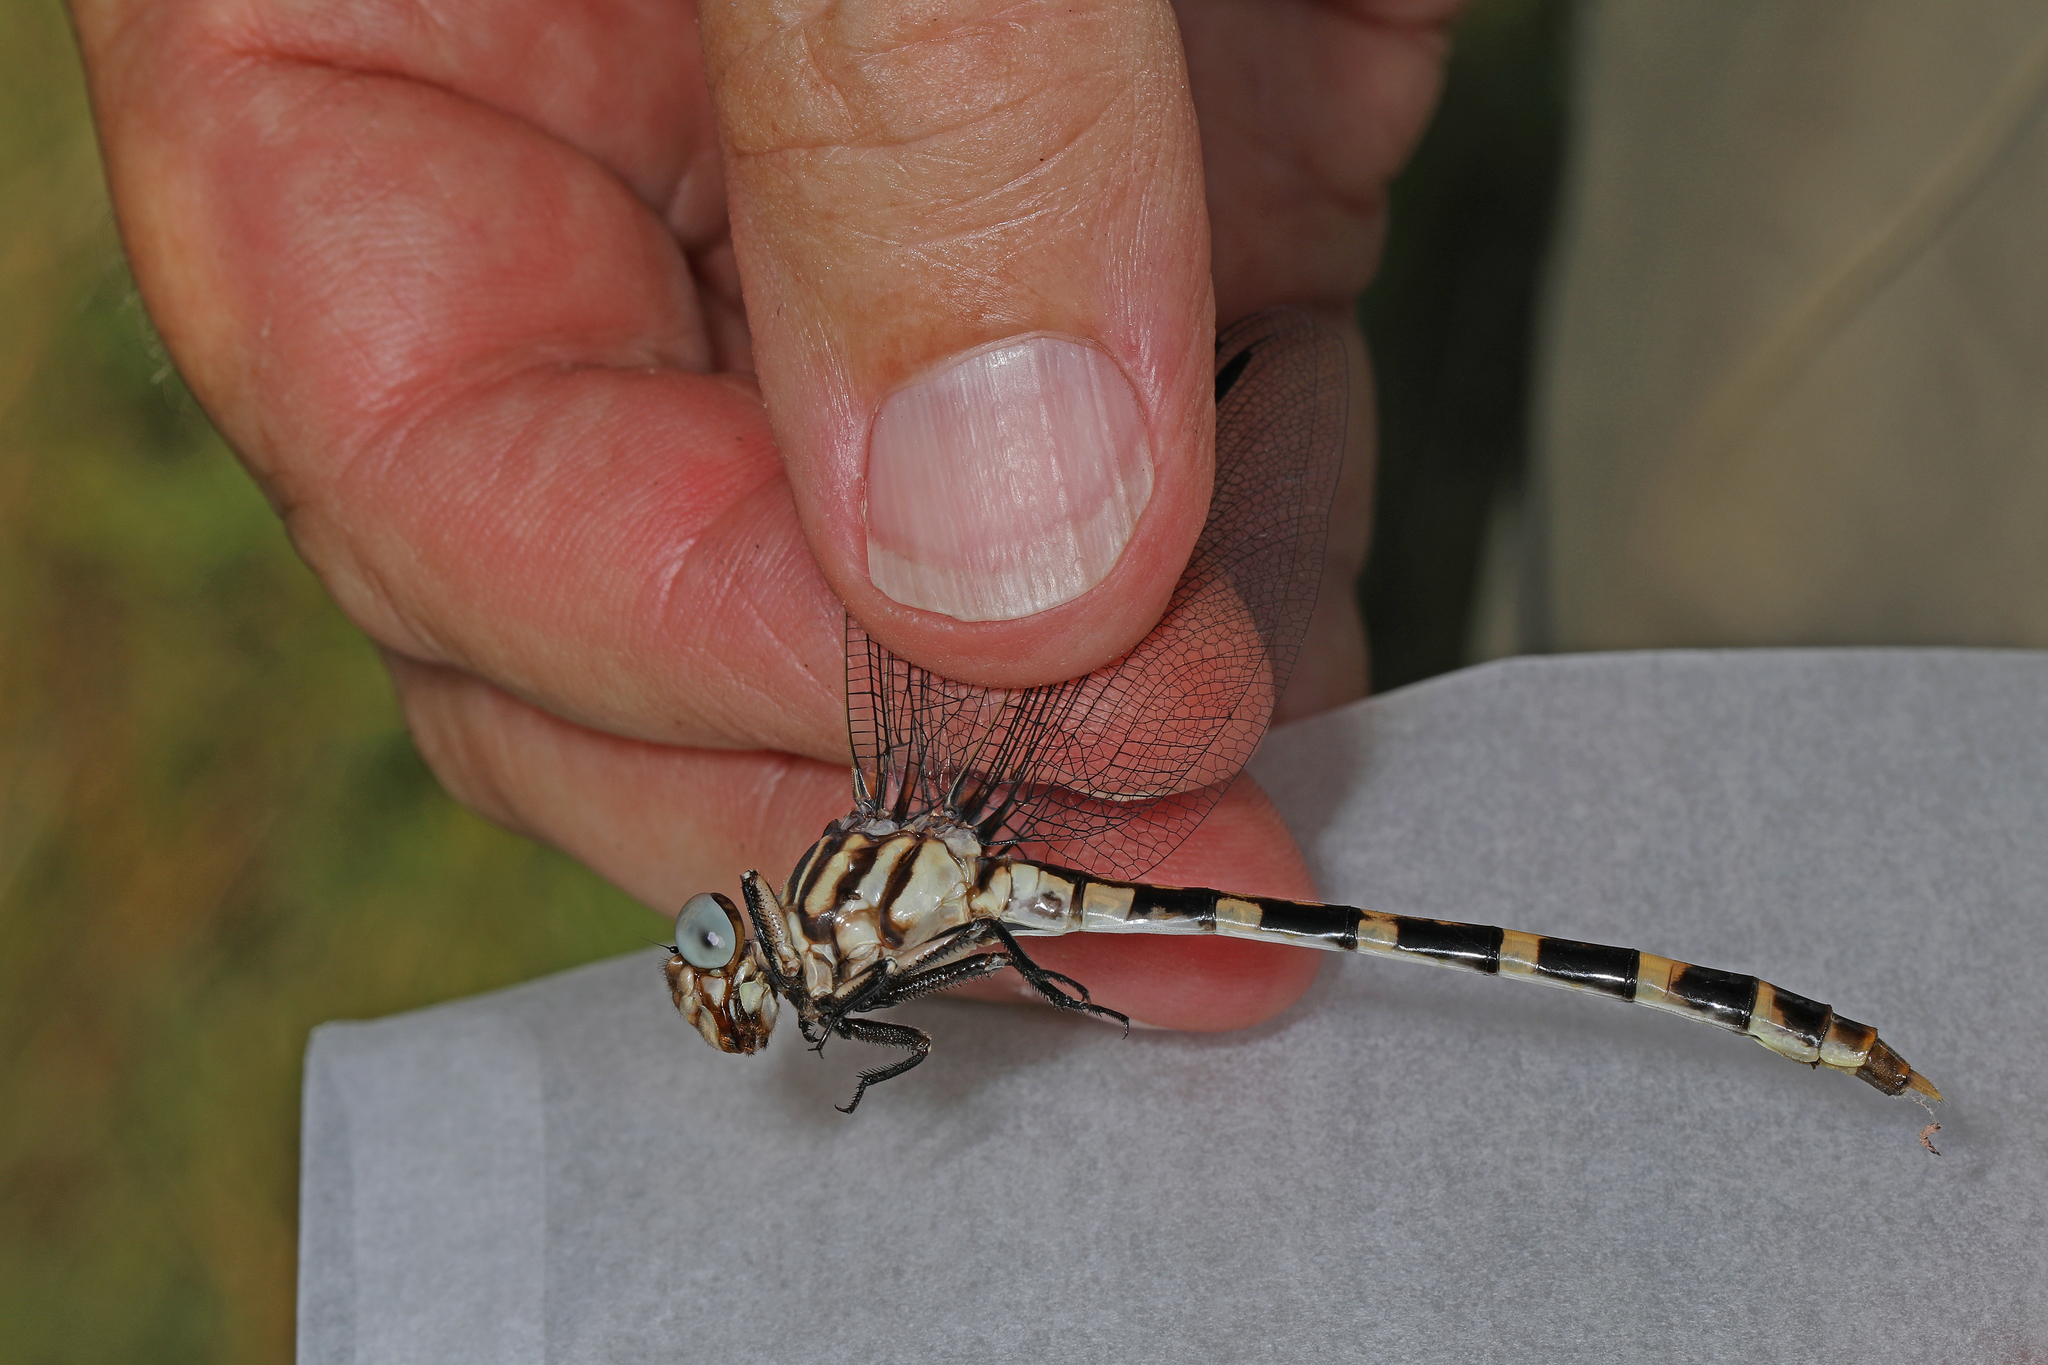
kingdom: Animalia
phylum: Arthropoda
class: Insecta
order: Odonata
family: Gomphidae
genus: Phyllogomphoides
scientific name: Phyllogomphoides stigmatus
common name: Four-striped leaftail
